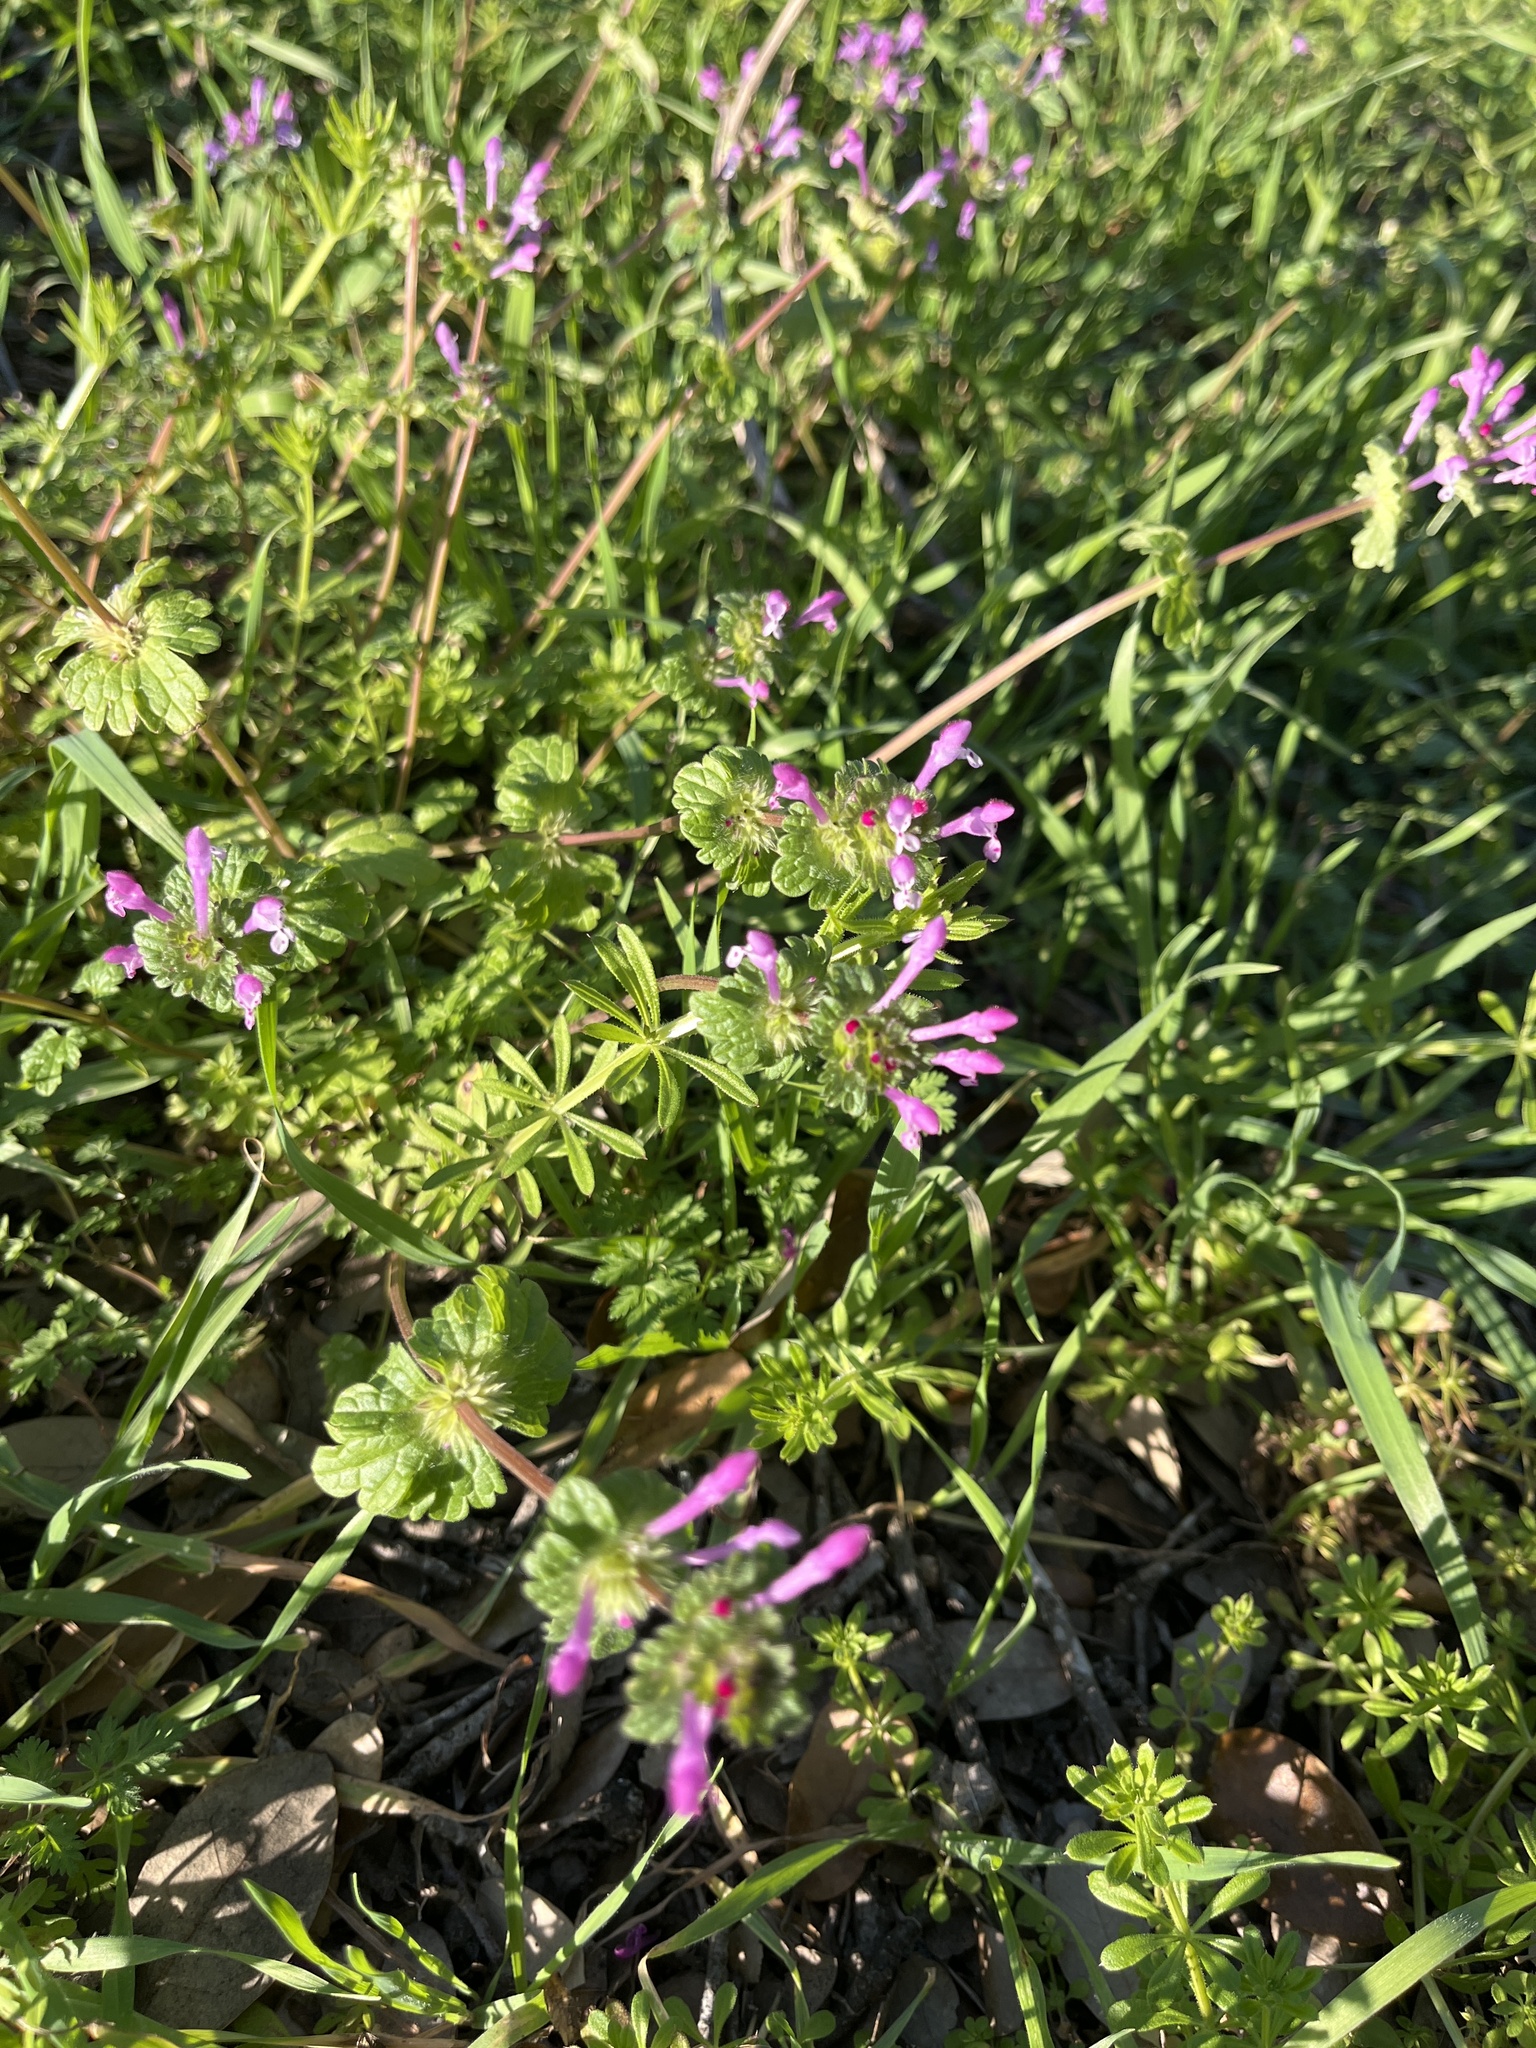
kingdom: Plantae
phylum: Tracheophyta
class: Magnoliopsida
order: Lamiales
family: Lamiaceae
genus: Lamium
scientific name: Lamium amplexicaule
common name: Henbit dead-nettle
